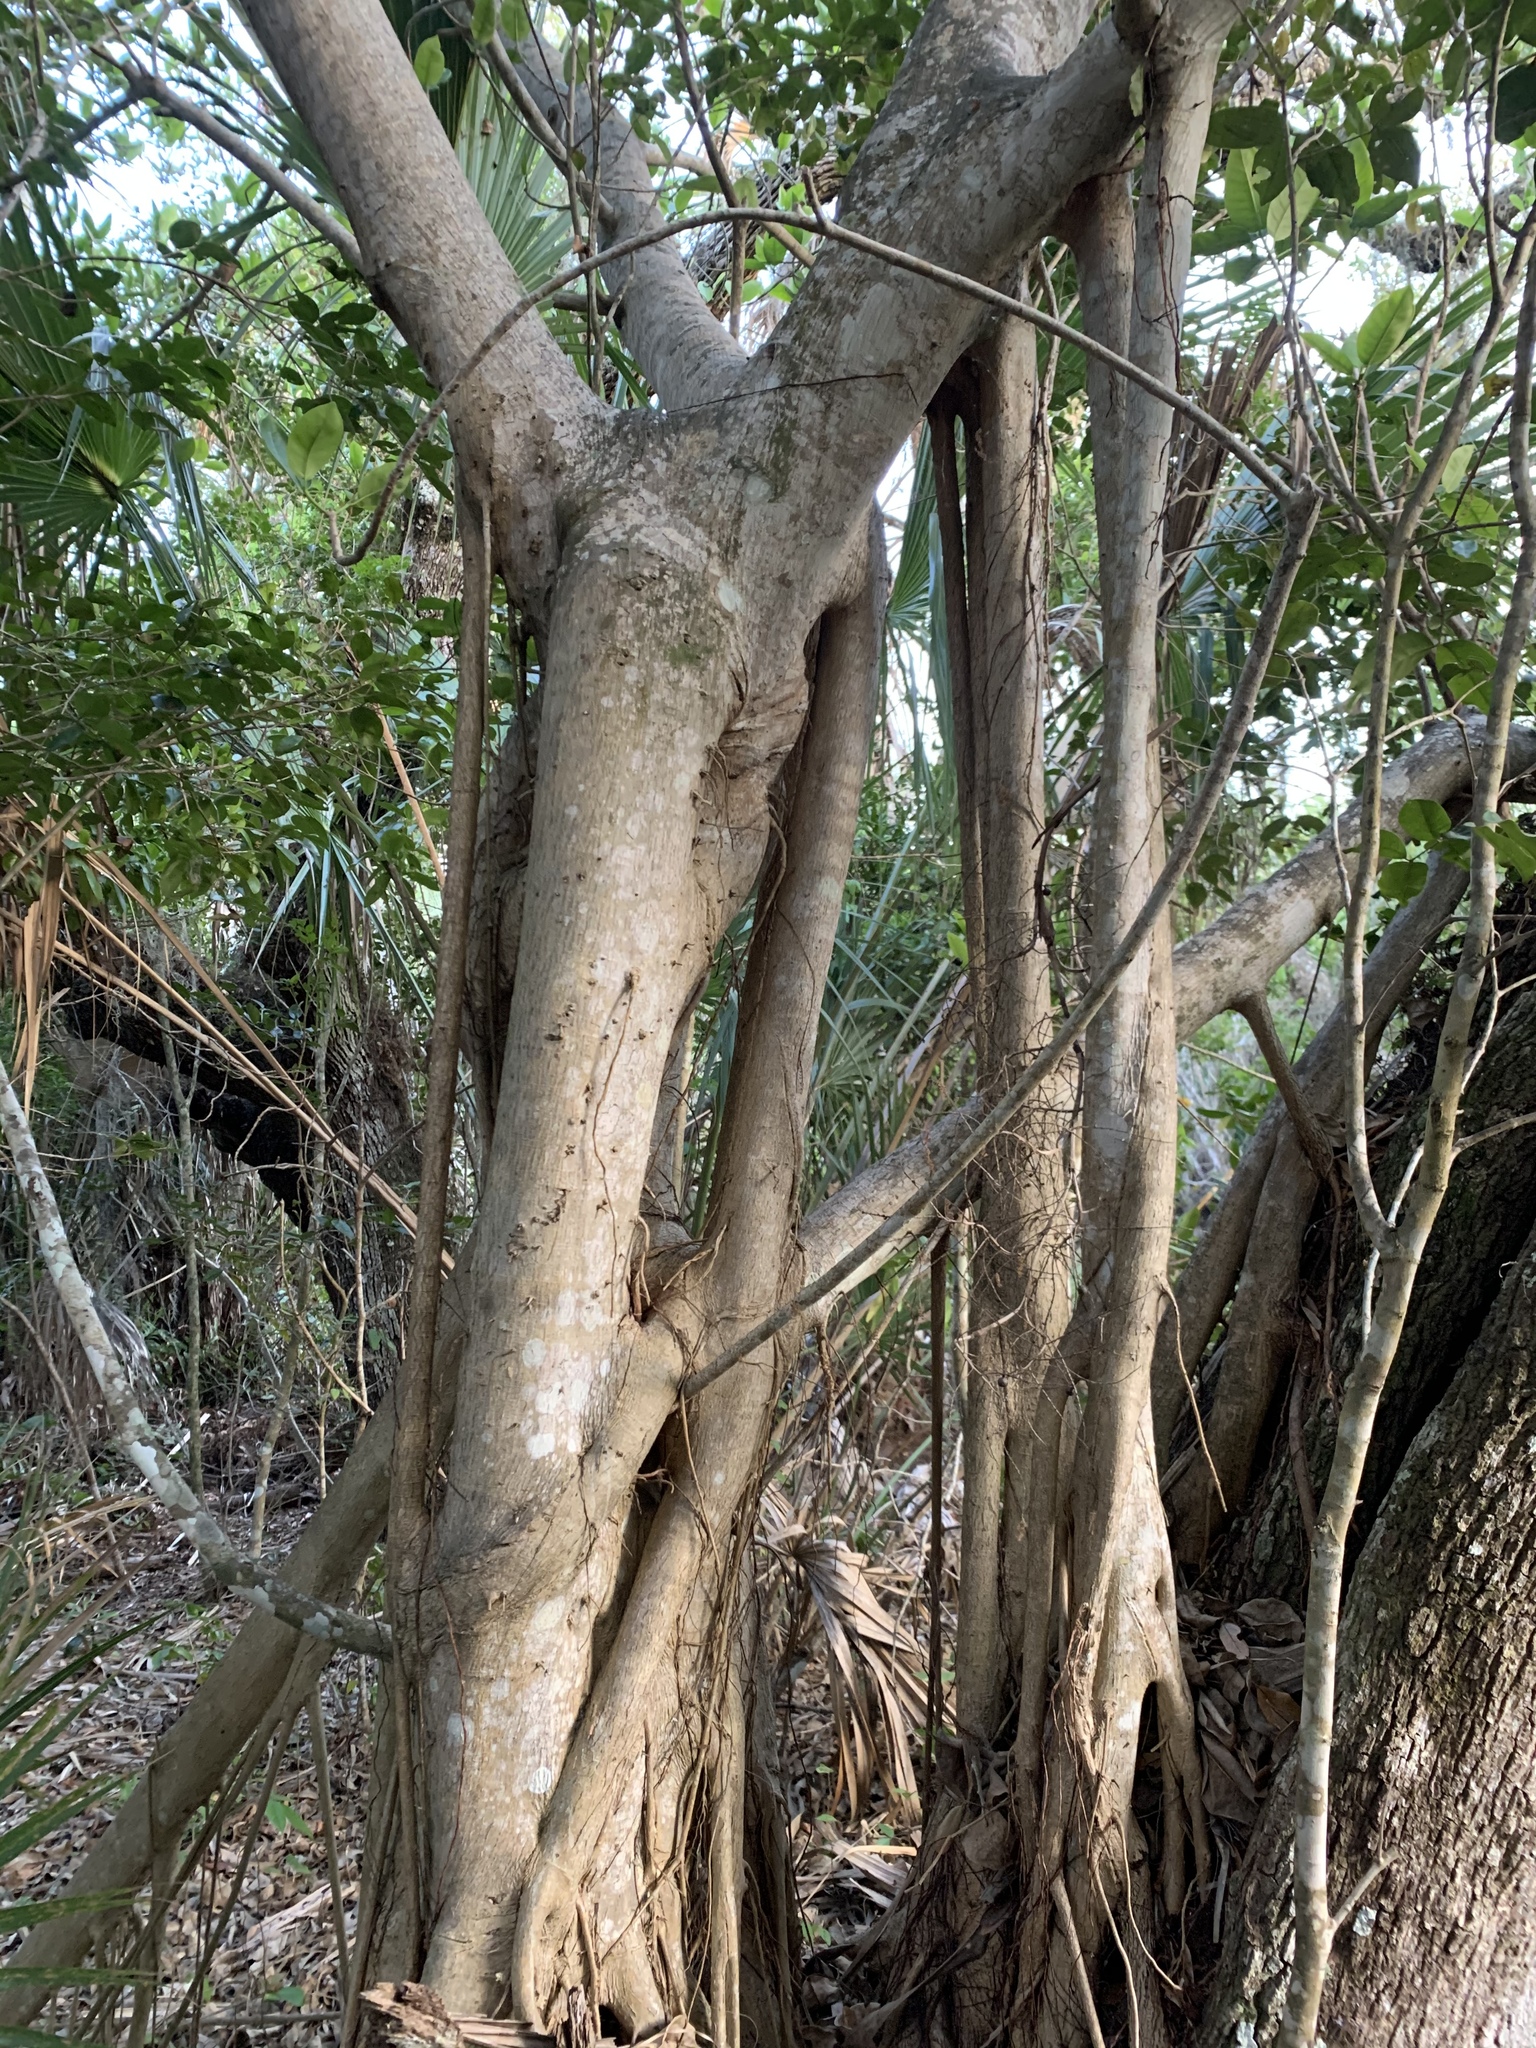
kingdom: Plantae
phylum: Tracheophyta
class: Magnoliopsida
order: Rosales
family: Moraceae
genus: Ficus
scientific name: Ficus aurea
